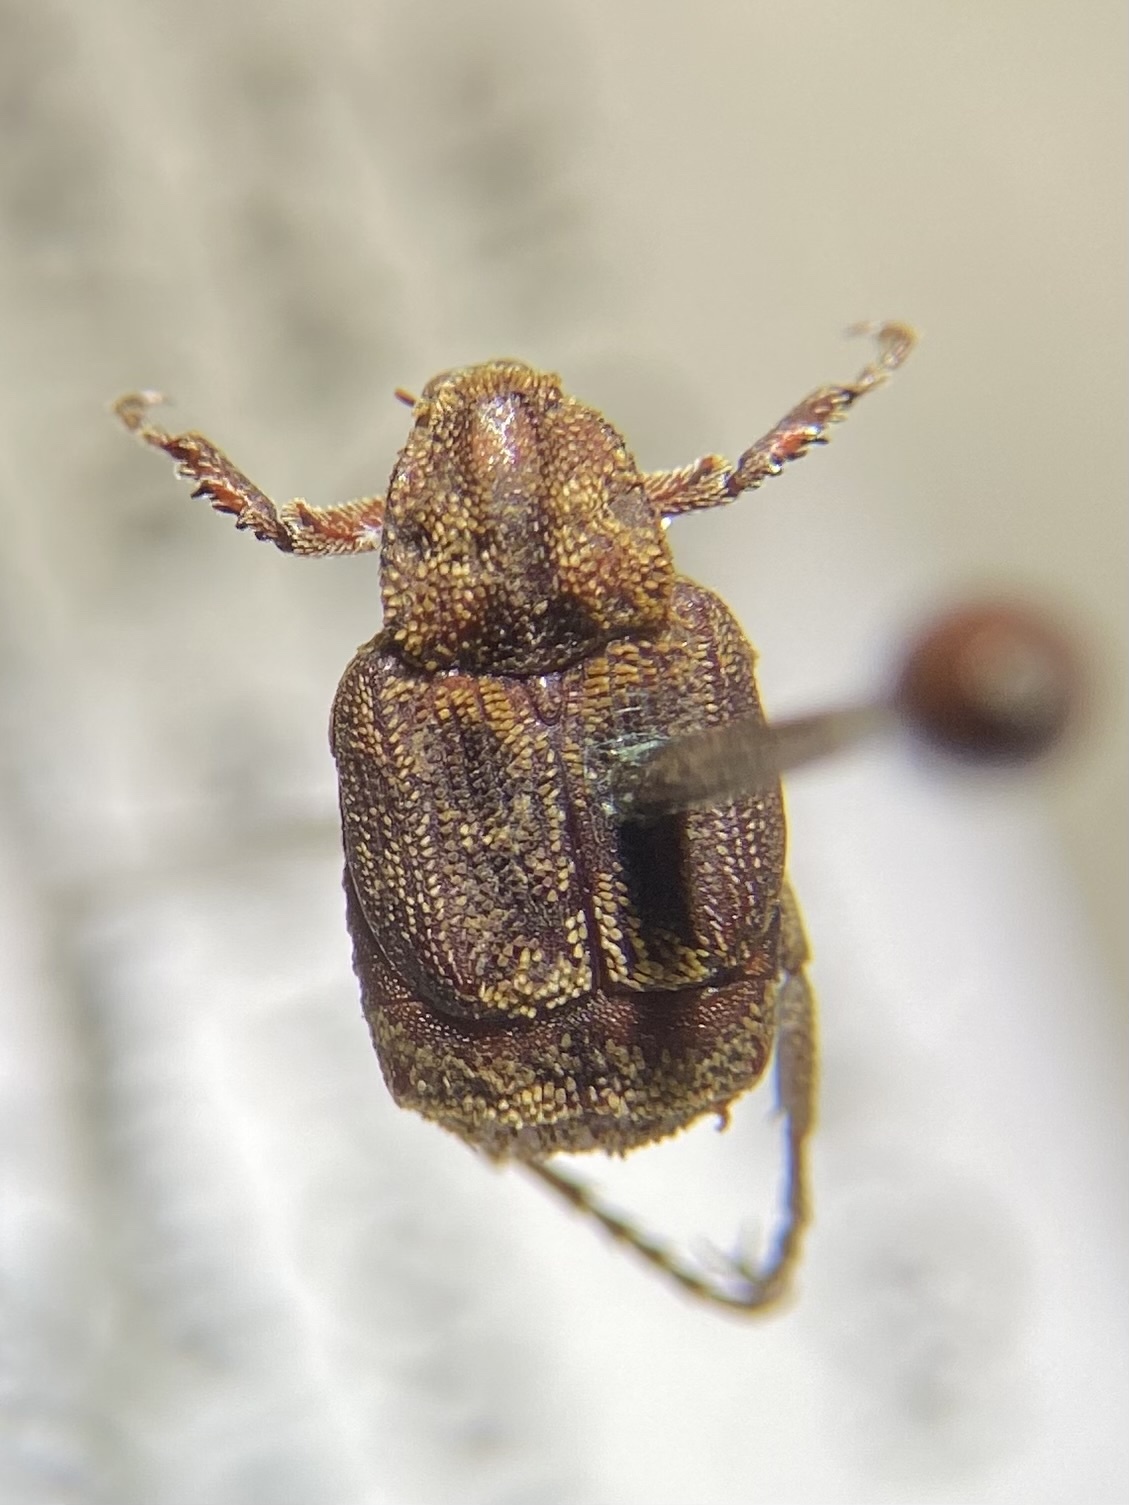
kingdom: Animalia
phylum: Arthropoda
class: Insecta
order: Coleoptera
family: Scarabaeidae
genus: Valgus
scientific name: Valgus canaliculatus
